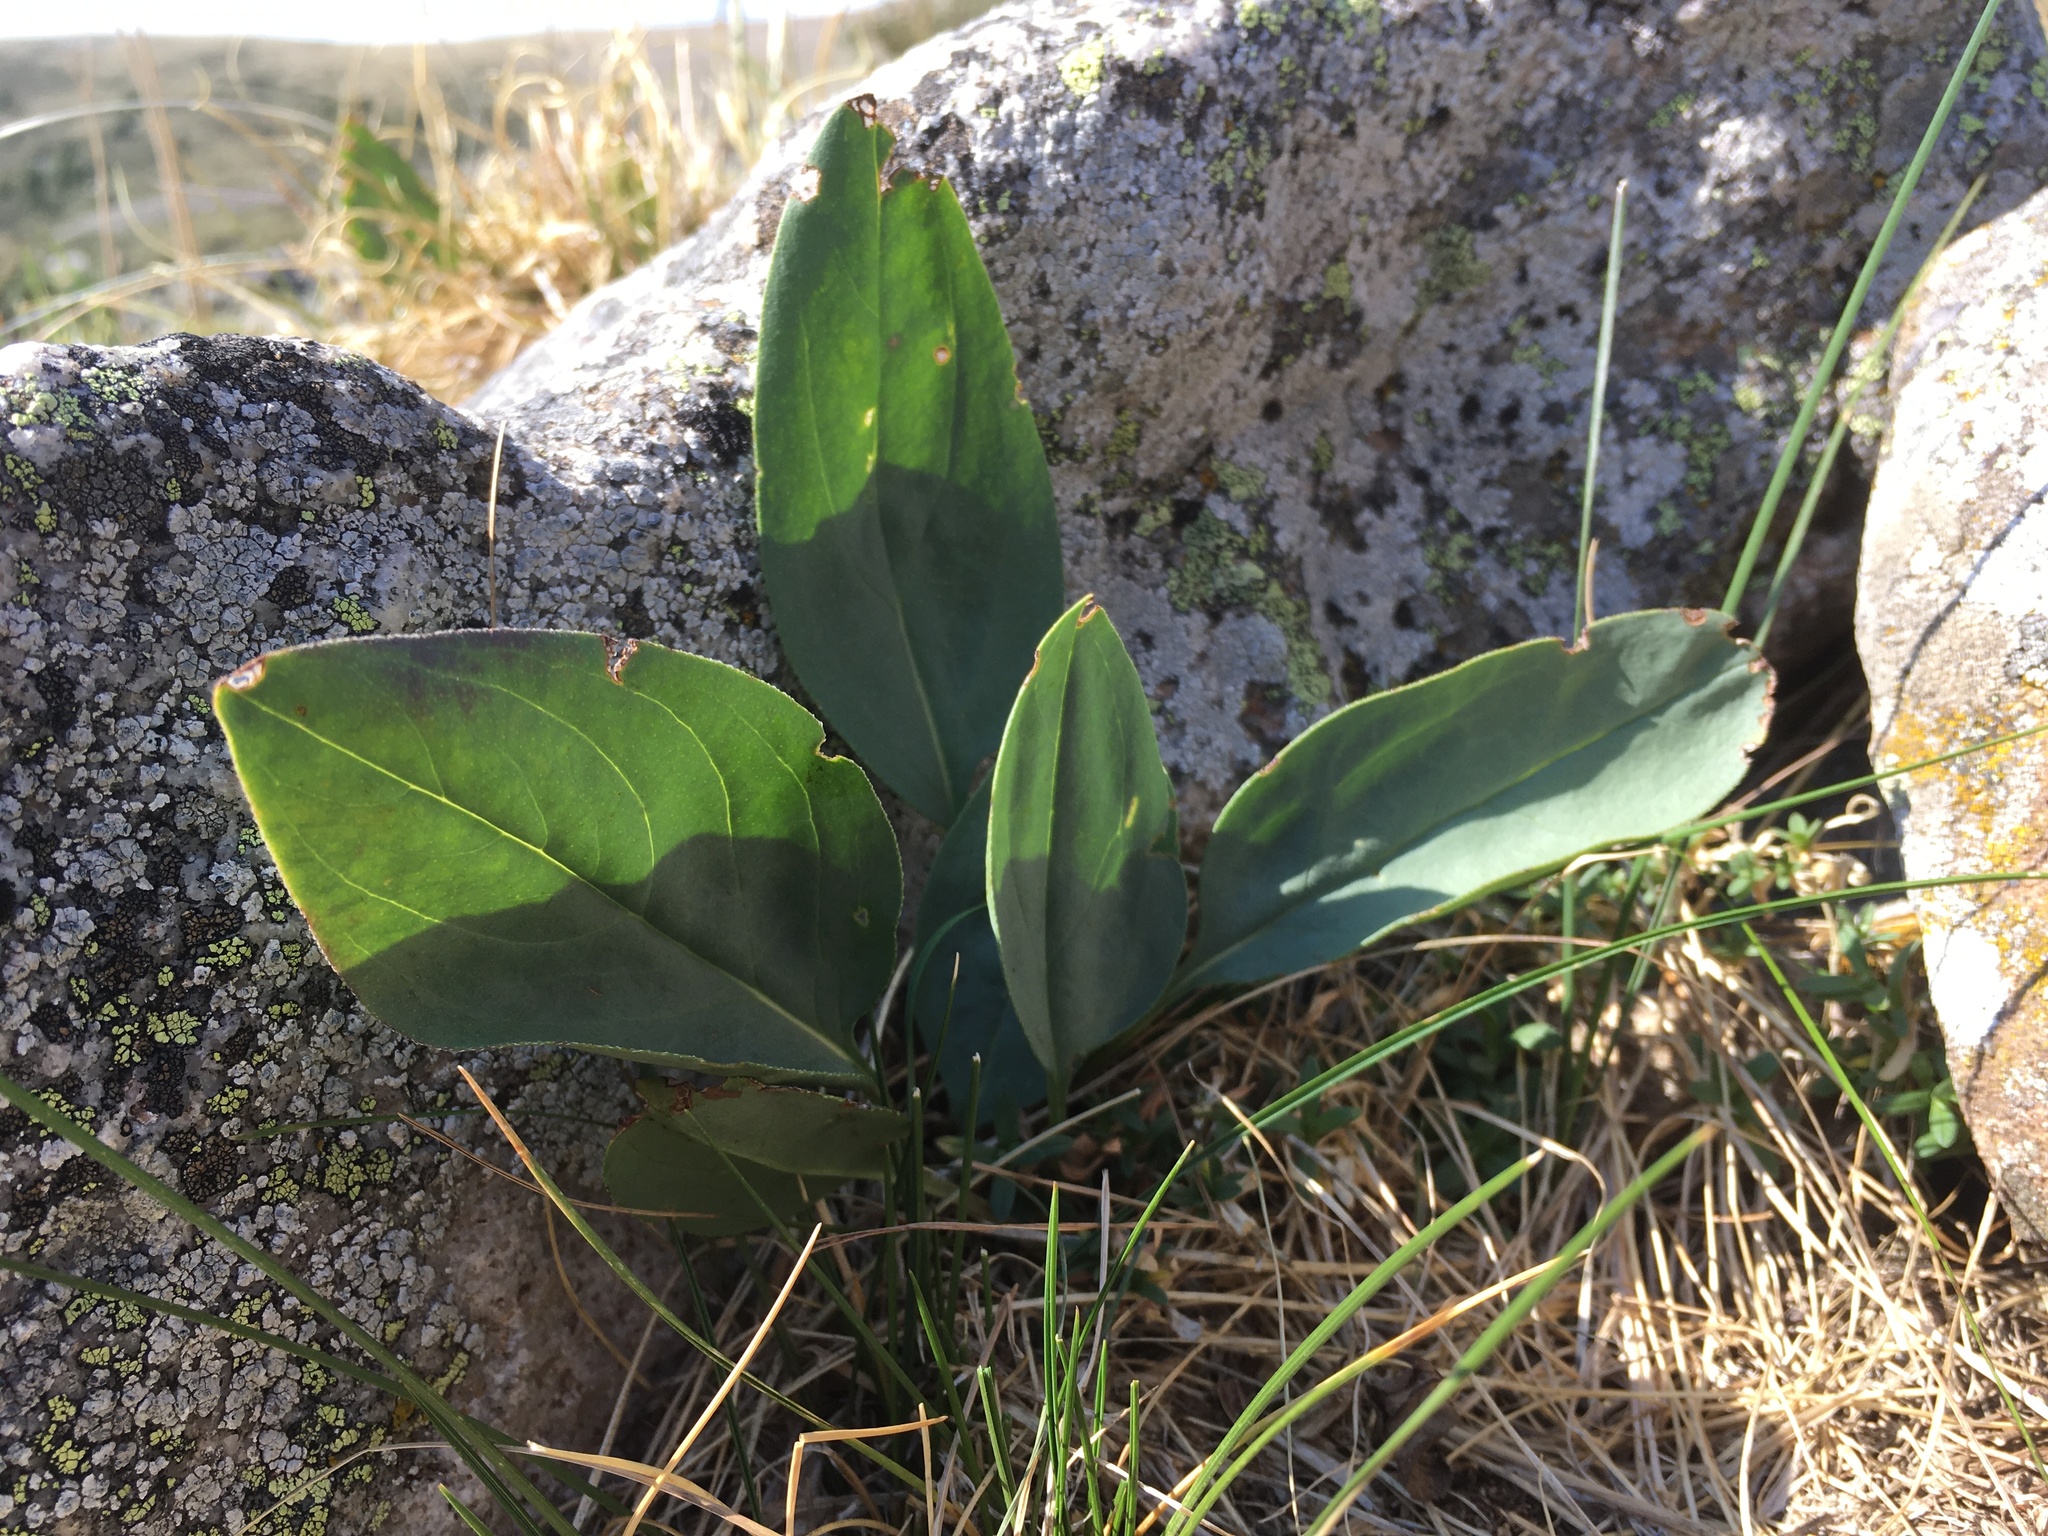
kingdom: Plantae
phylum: Tracheophyta
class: Magnoliopsida
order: Boraginales
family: Boraginaceae
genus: Mertensia
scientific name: Mertensia ovata
